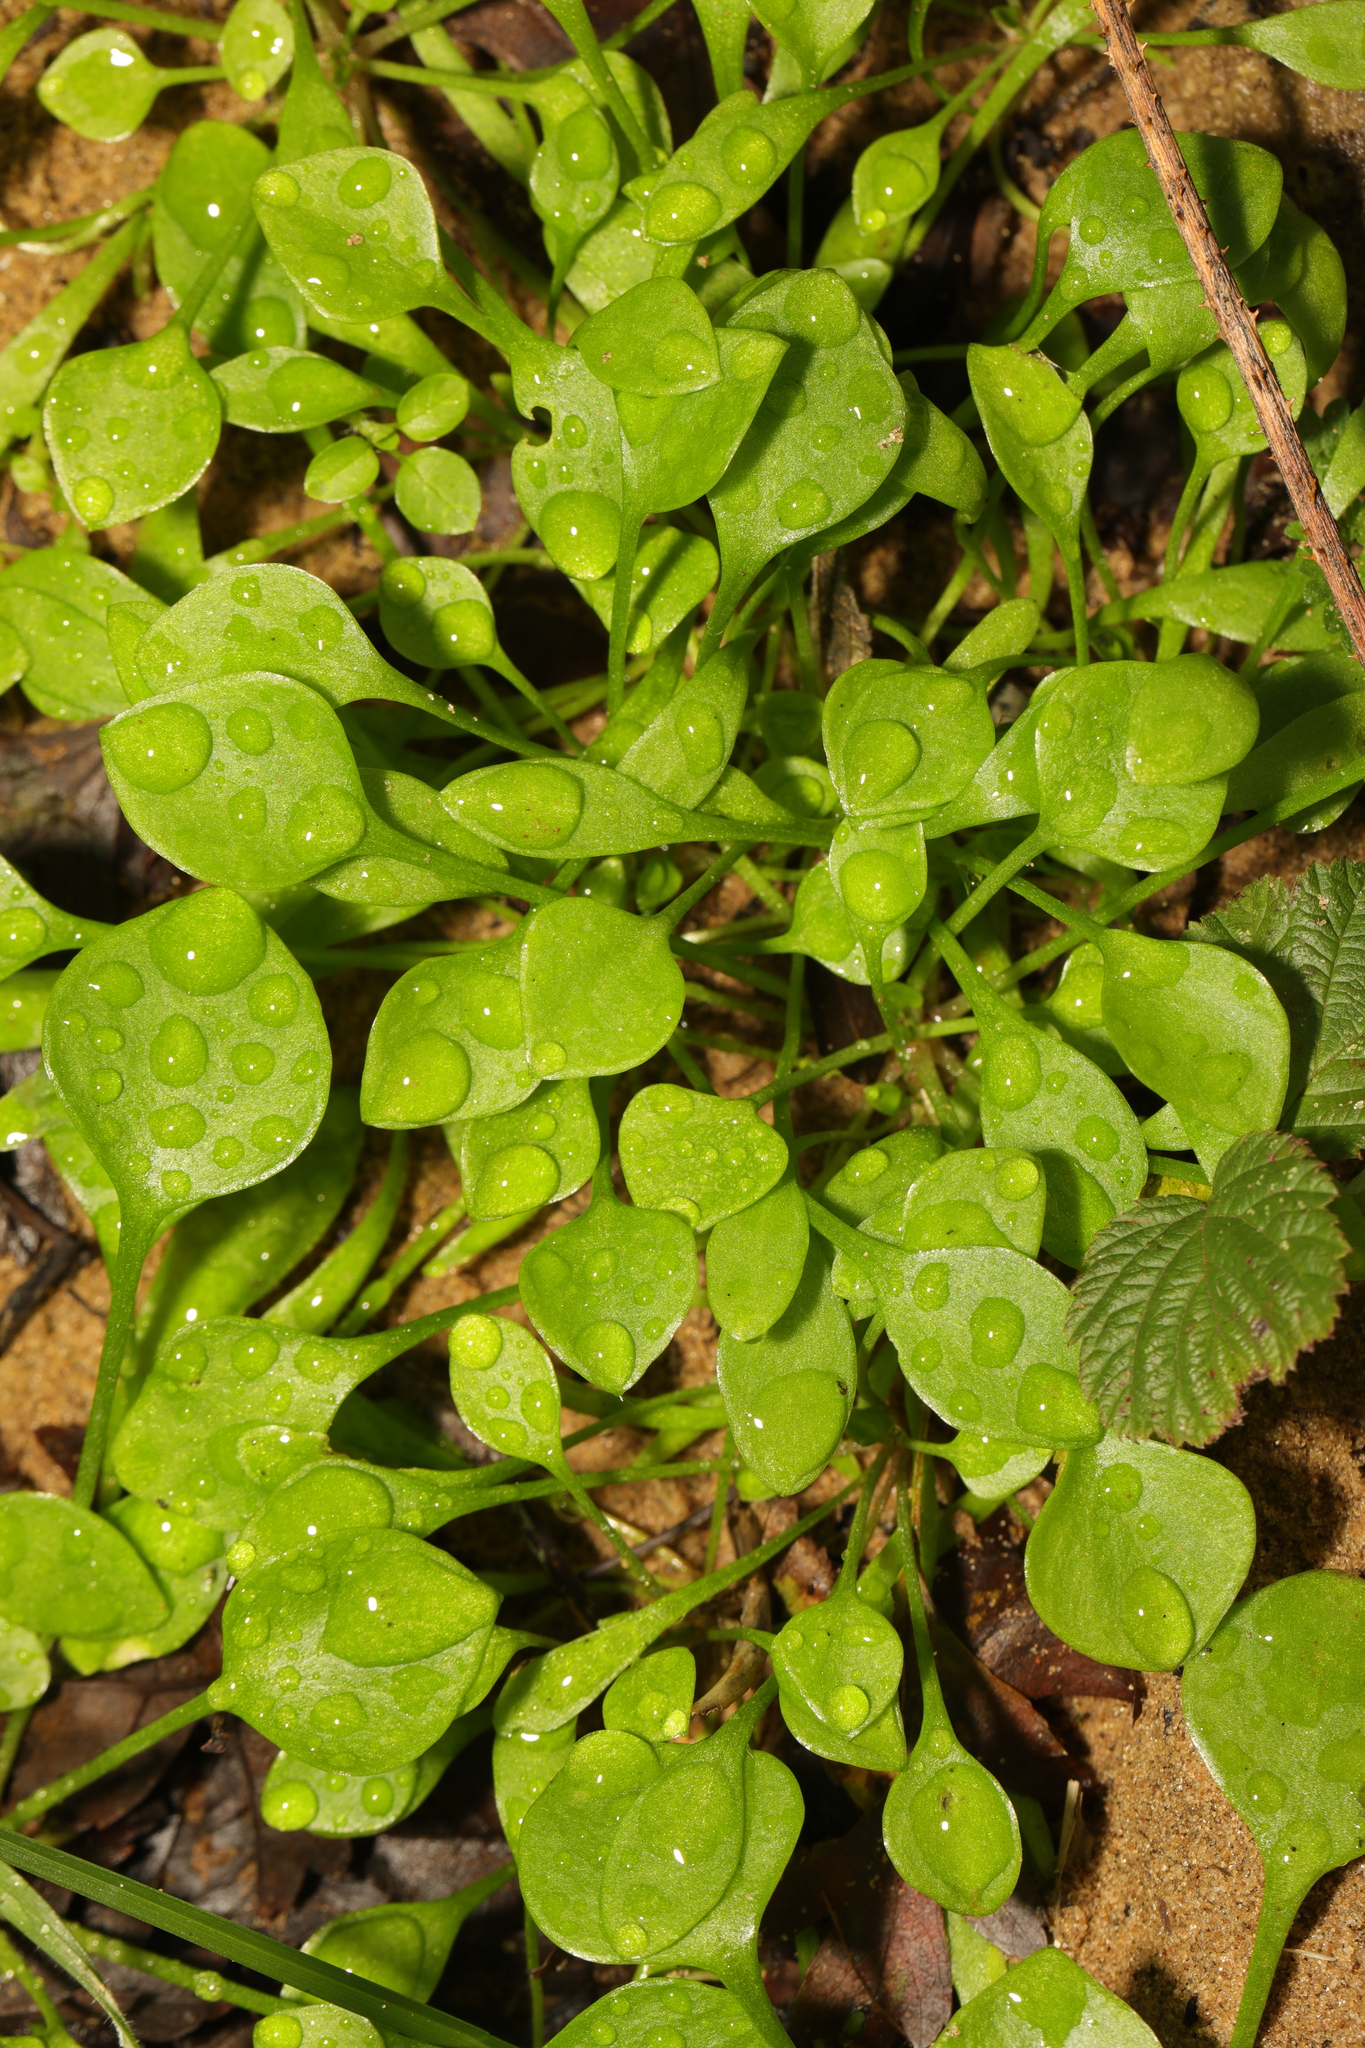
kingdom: Plantae
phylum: Tracheophyta
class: Magnoliopsida
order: Caryophyllales
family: Montiaceae
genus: Claytonia
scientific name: Claytonia perfoliata
